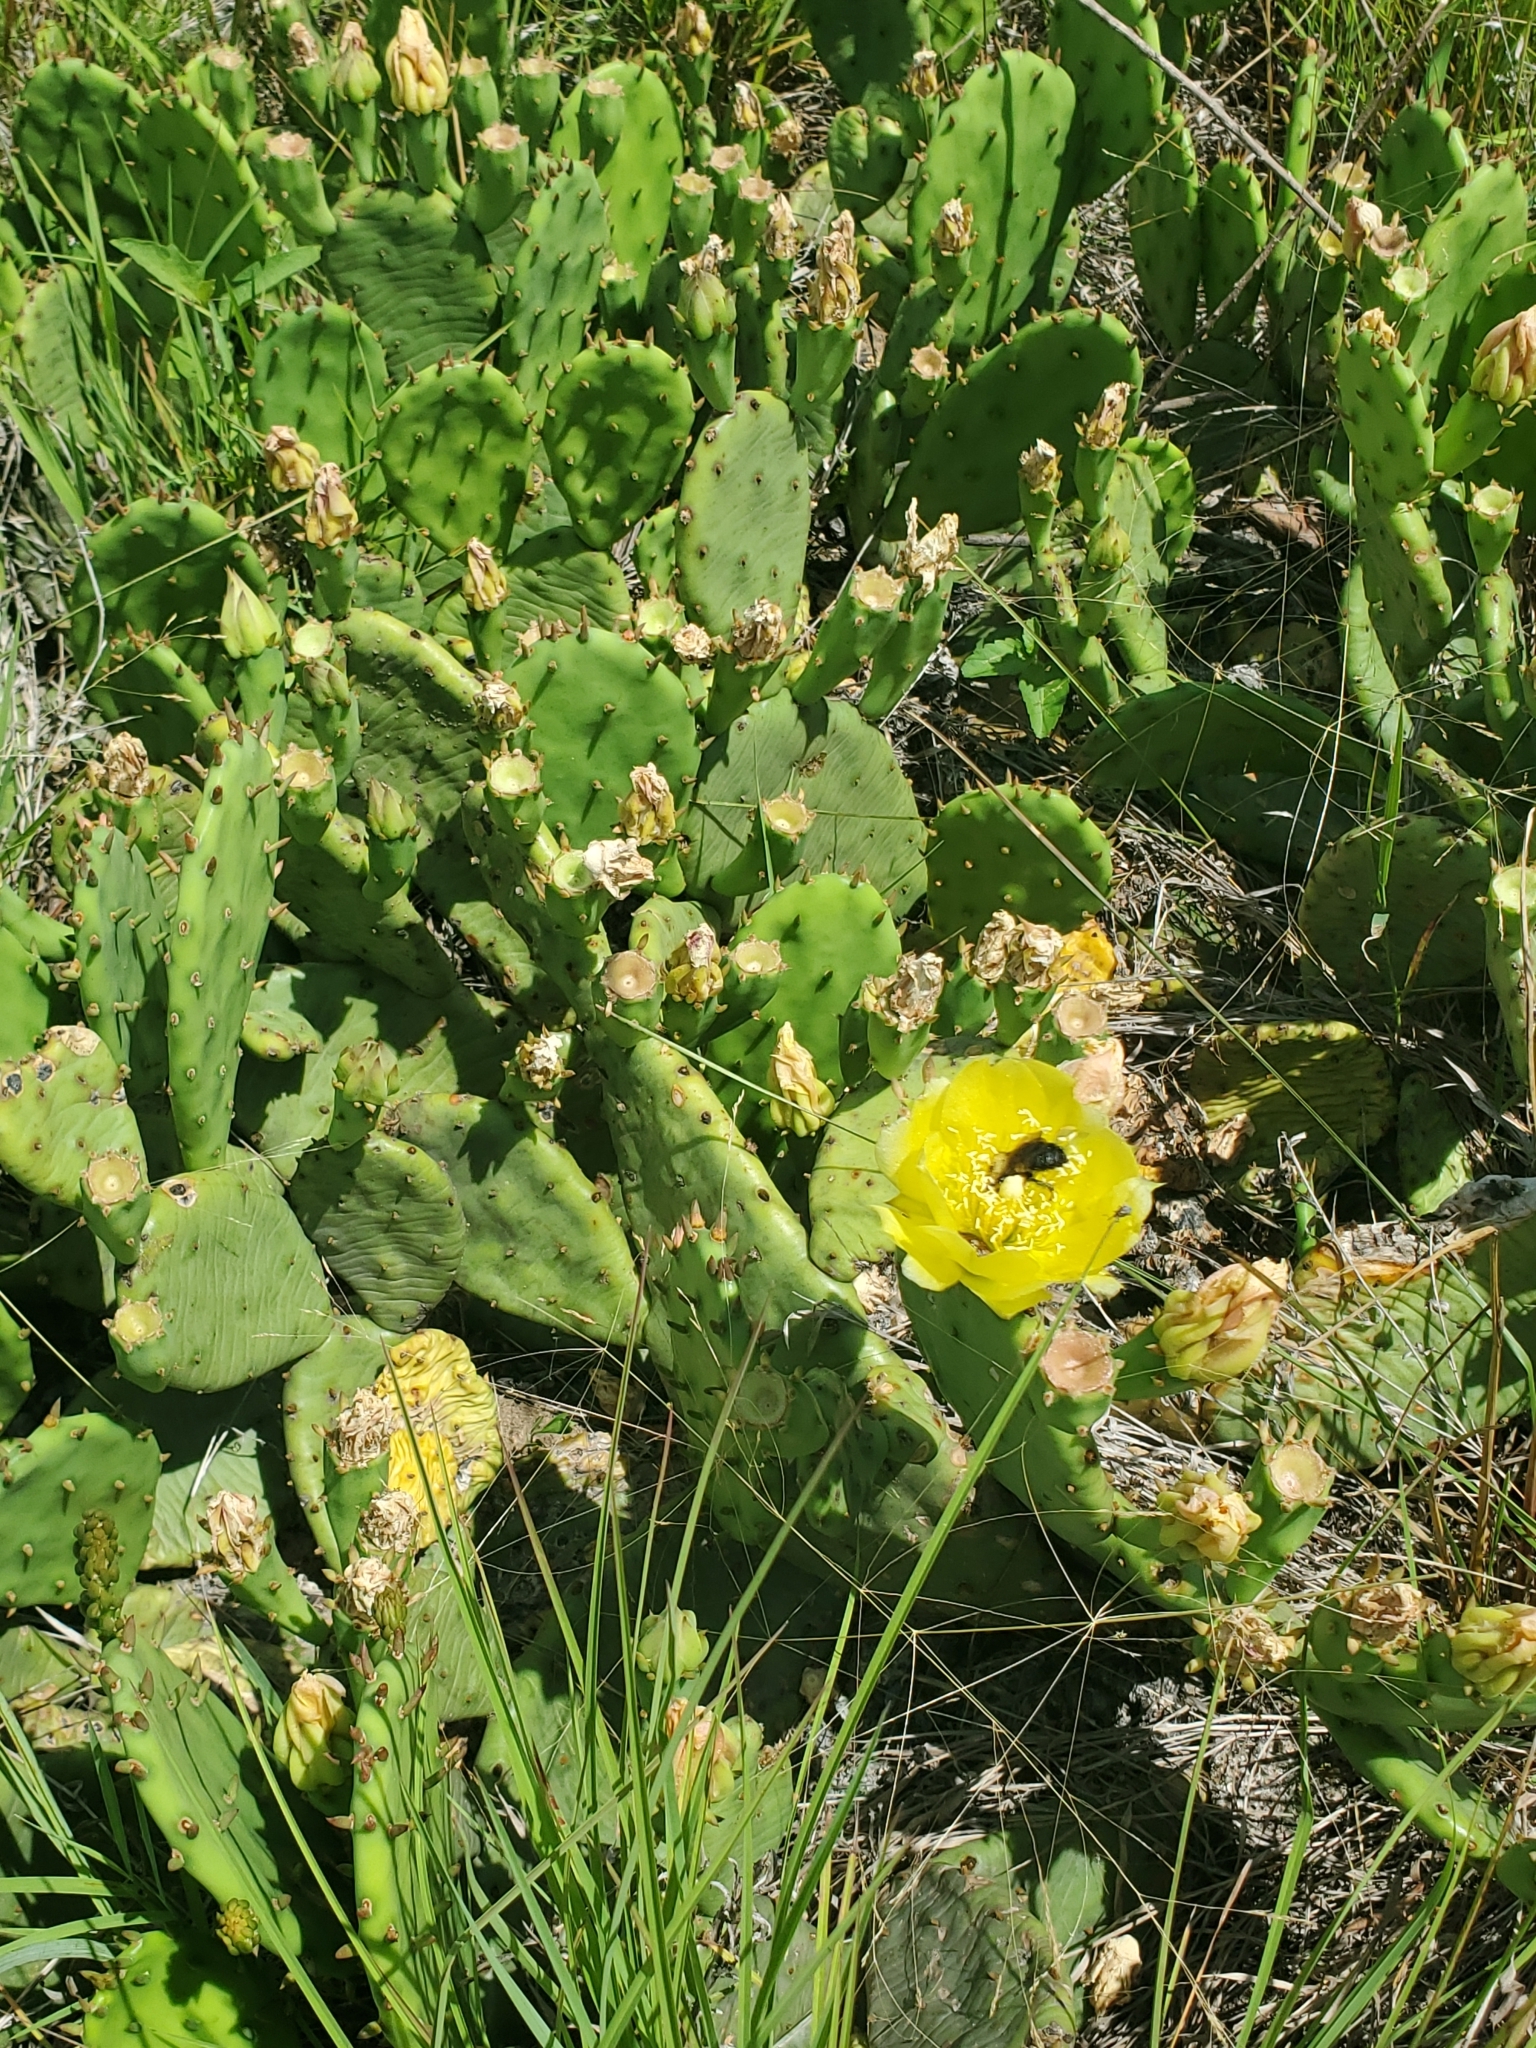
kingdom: Plantae
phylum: Tracheophyta
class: Magnoliopsida
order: Caryophyllales
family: Cactaceae
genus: Opuntia
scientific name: Opuntia humifusa
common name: Eastern prickly-pear
